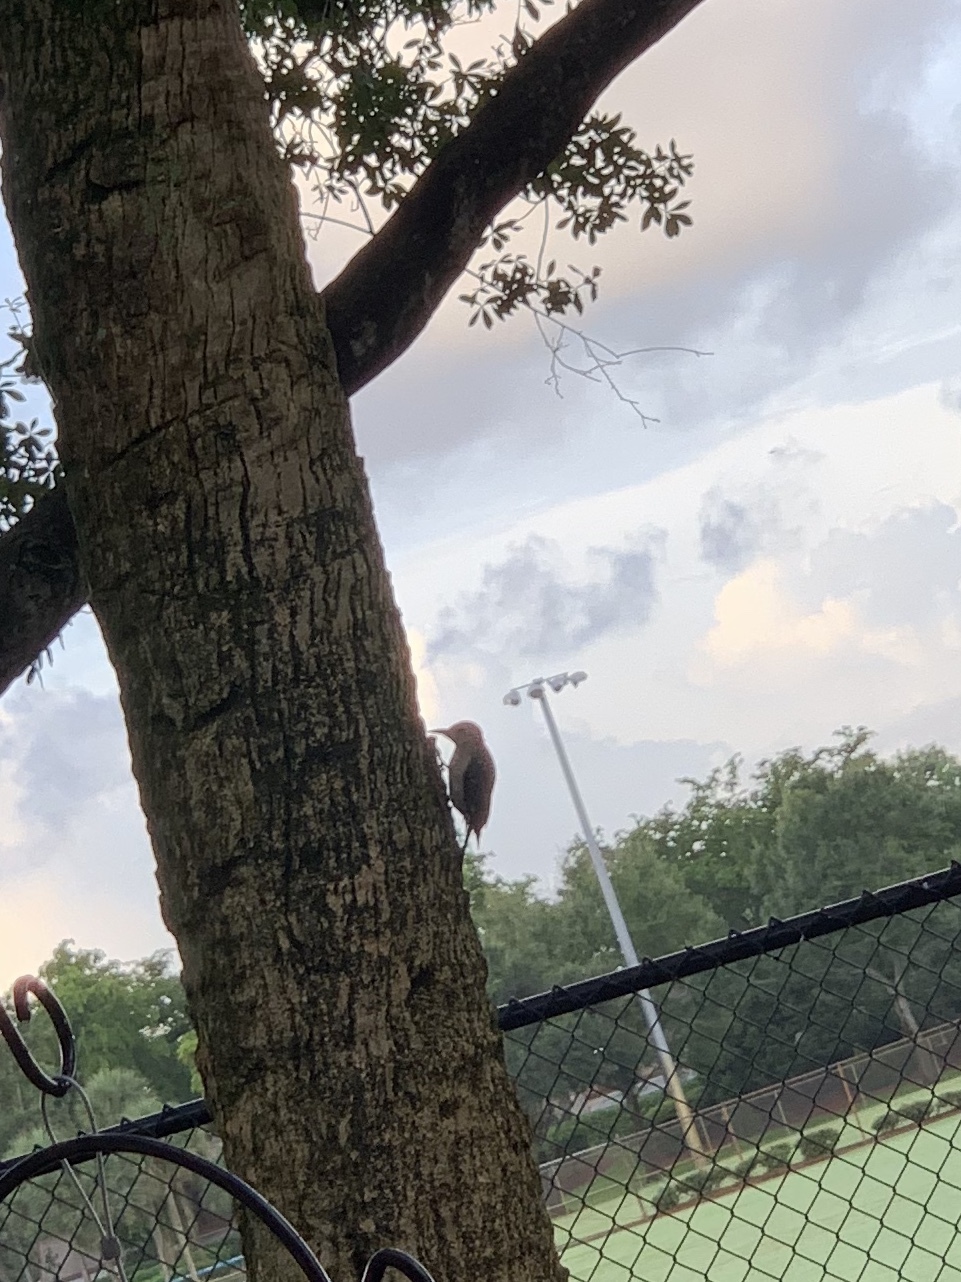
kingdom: Animalia
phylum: Chordata
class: Aves
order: Piciformes
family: Picidae
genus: Melanerpes
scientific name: Melanerpes carolinus
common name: Red-bellied woodpecker
